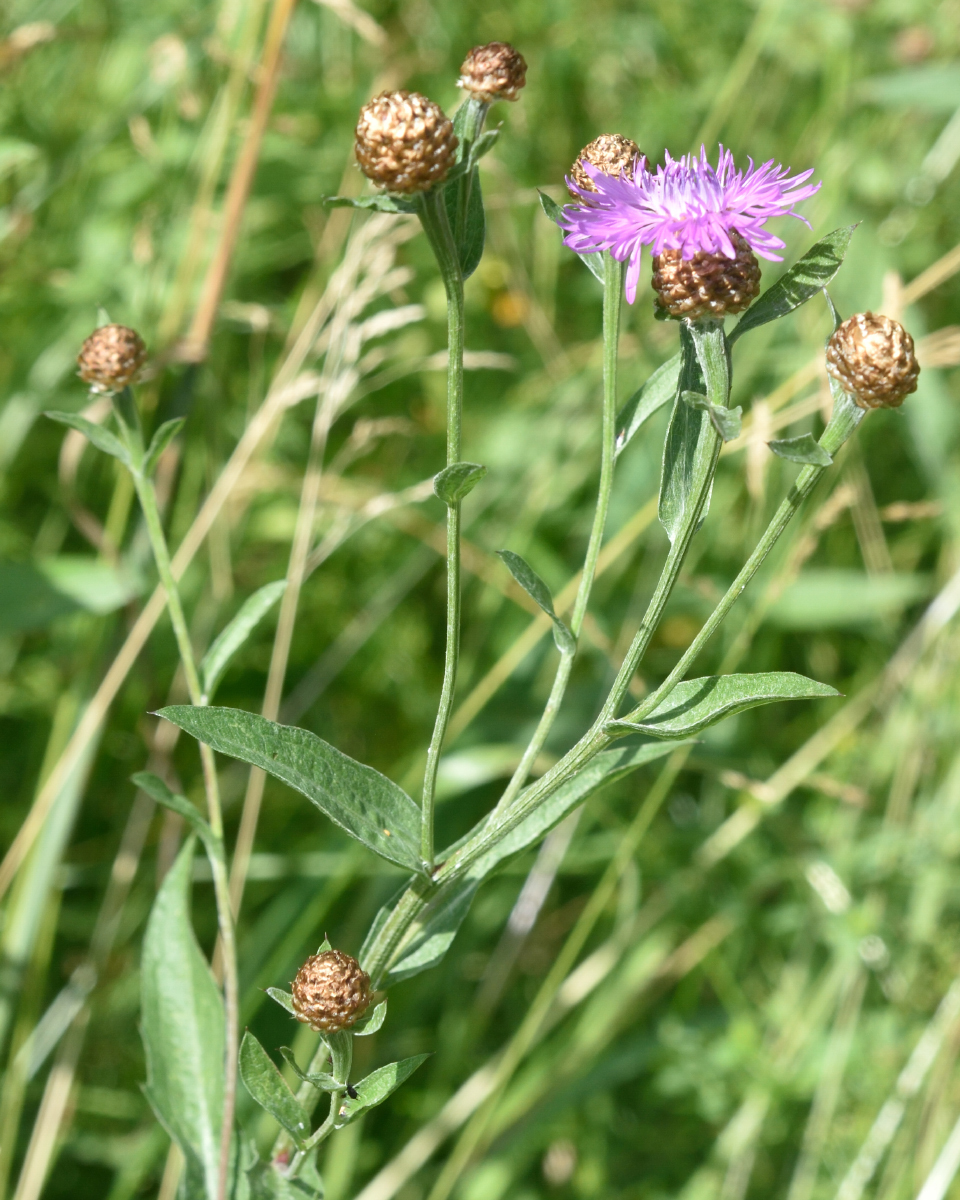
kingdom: Plantae
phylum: Tracheophyta
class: Magnoliopsida
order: Asterales
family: Asteraceae
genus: Centaurea
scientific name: Centaurea jacea
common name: Brown knapweed
